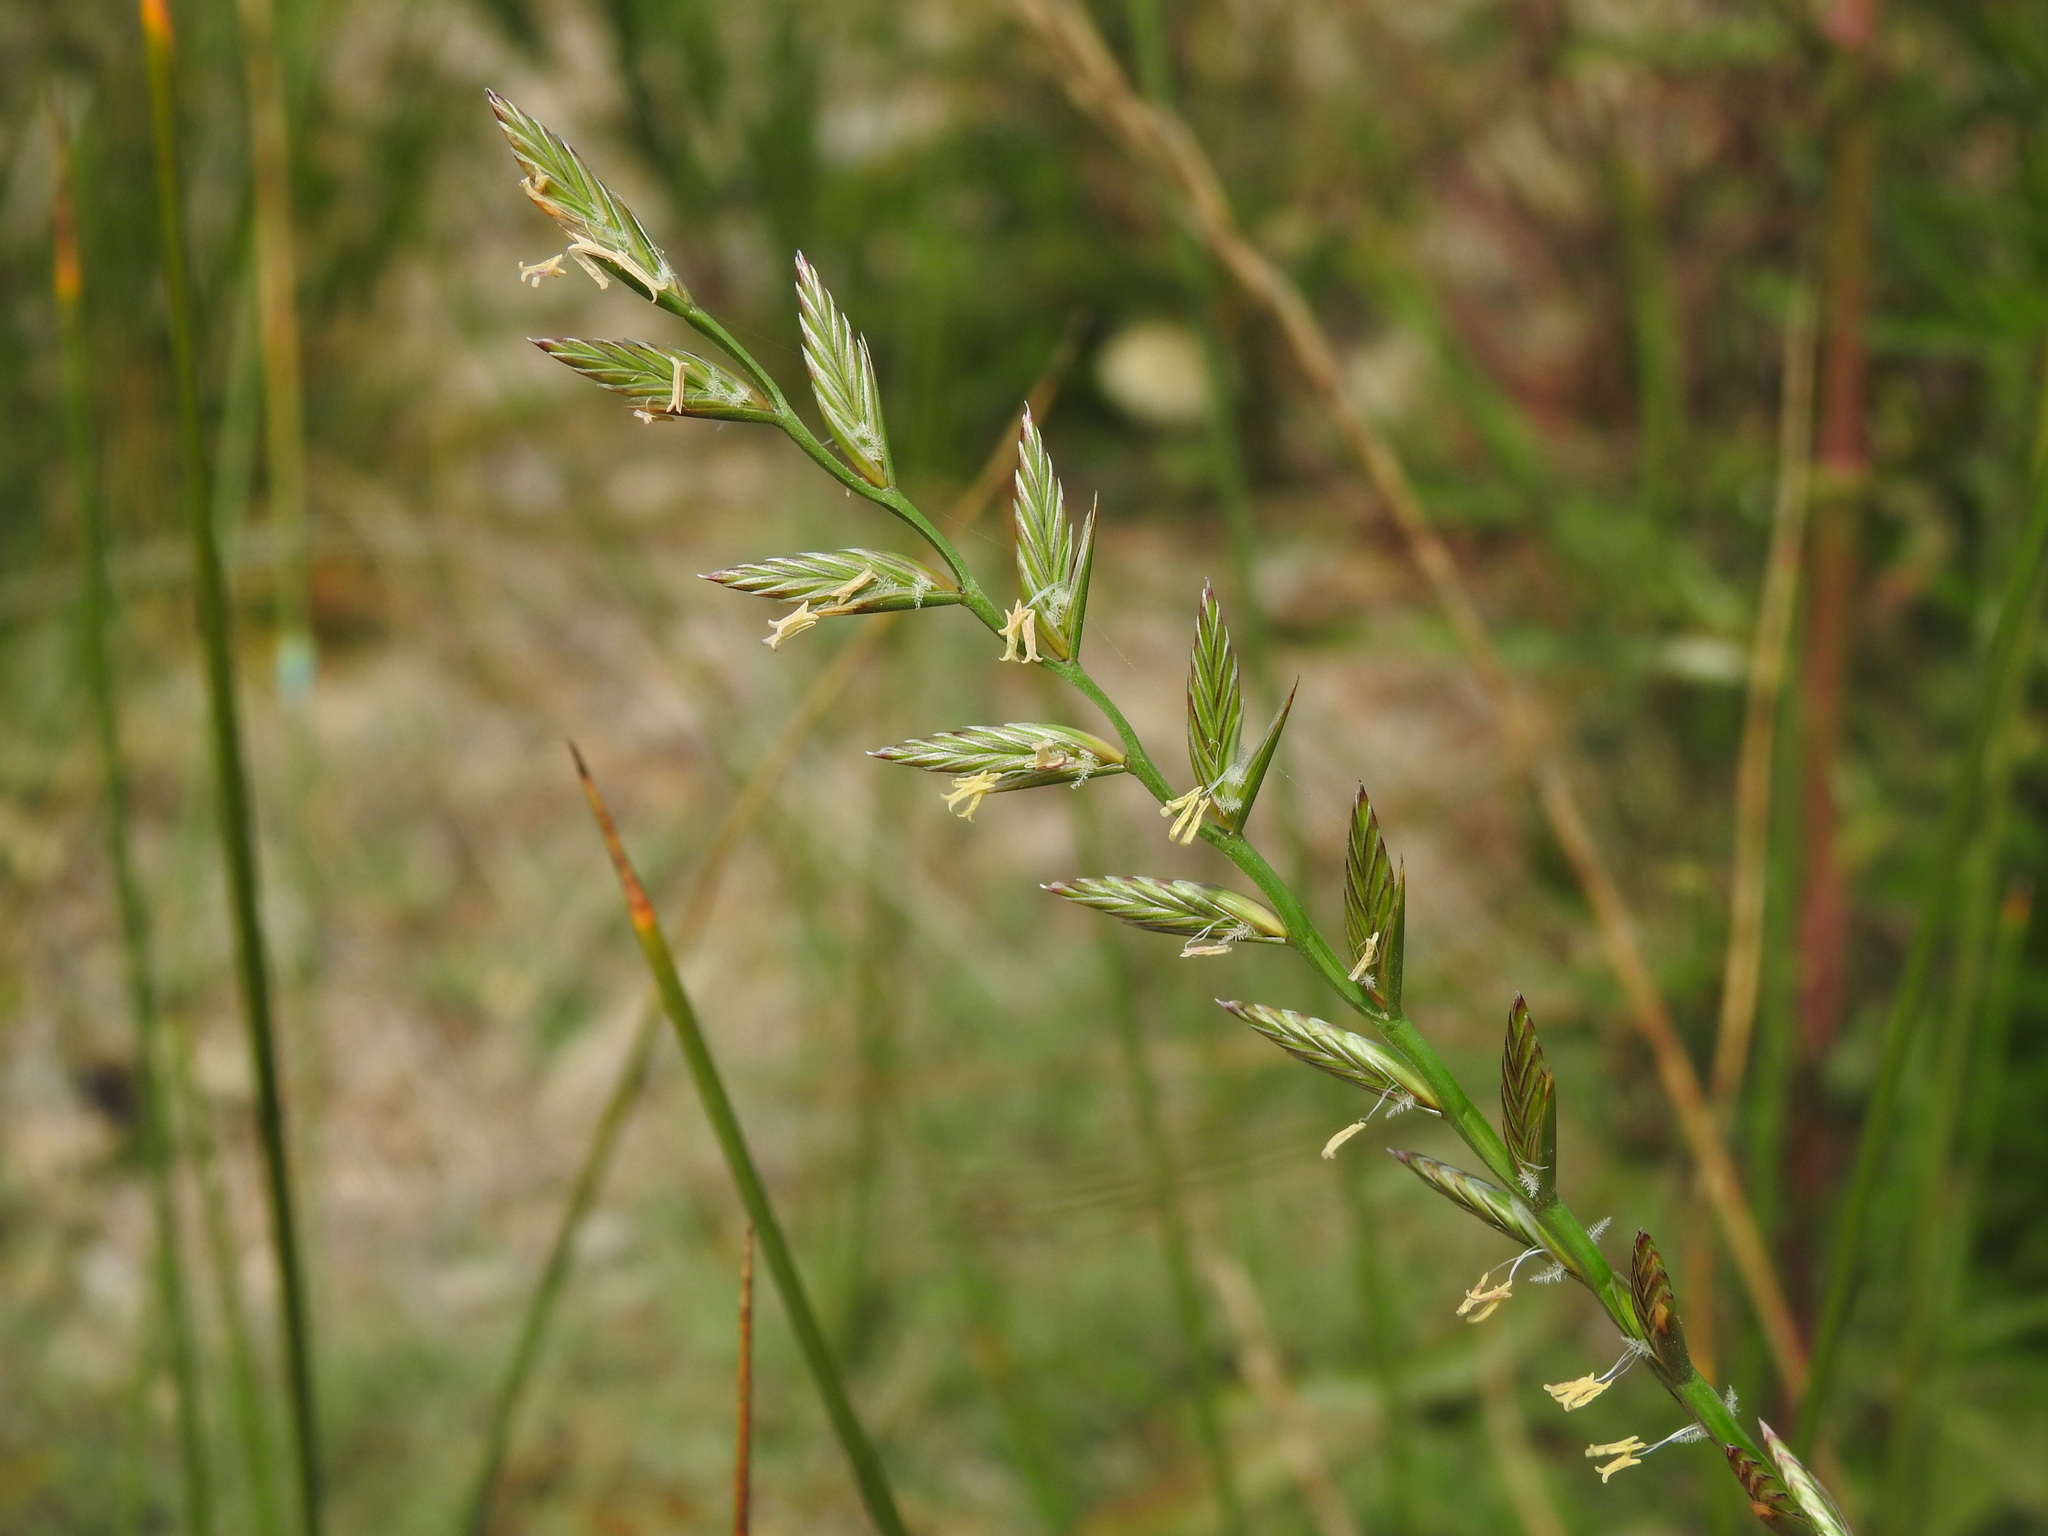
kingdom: Plantae
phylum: Tracheophyta
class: Liliopsida
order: Poales
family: Poaceae
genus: Lolium
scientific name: Lolium perenne
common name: Perennial ryegrass
